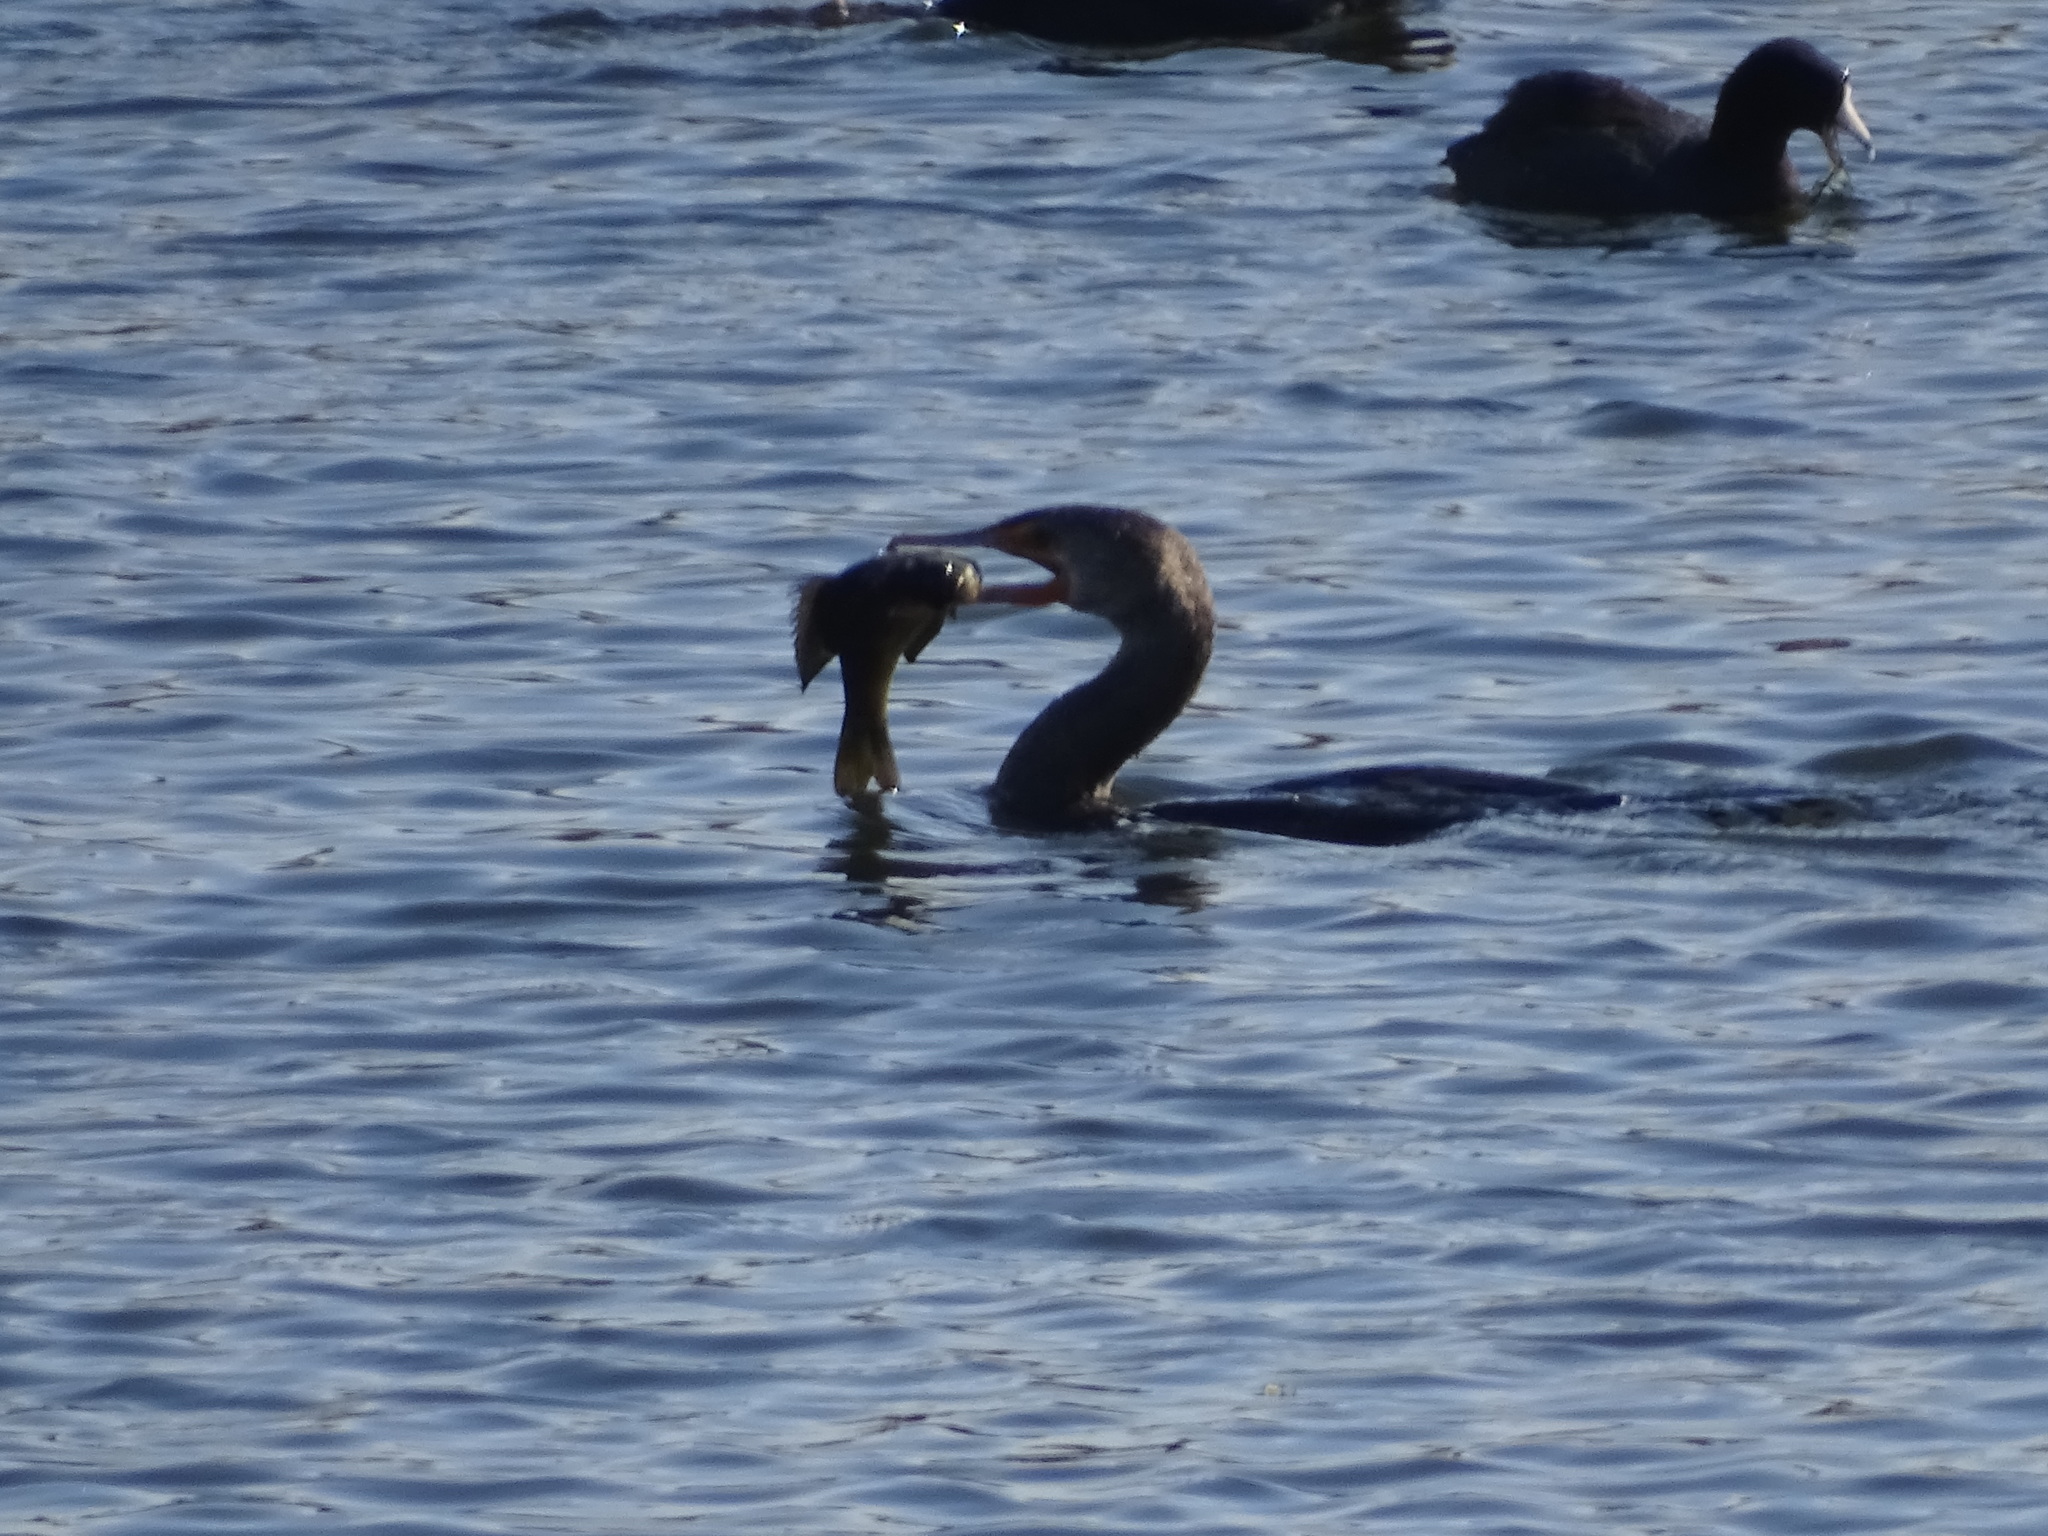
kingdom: Animalia
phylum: Chordata
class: Aves
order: Suliformes
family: Phalacrocoracidae
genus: Phalacrocorax
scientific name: Phalacrocorax auritus
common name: Double-crested cormorant
